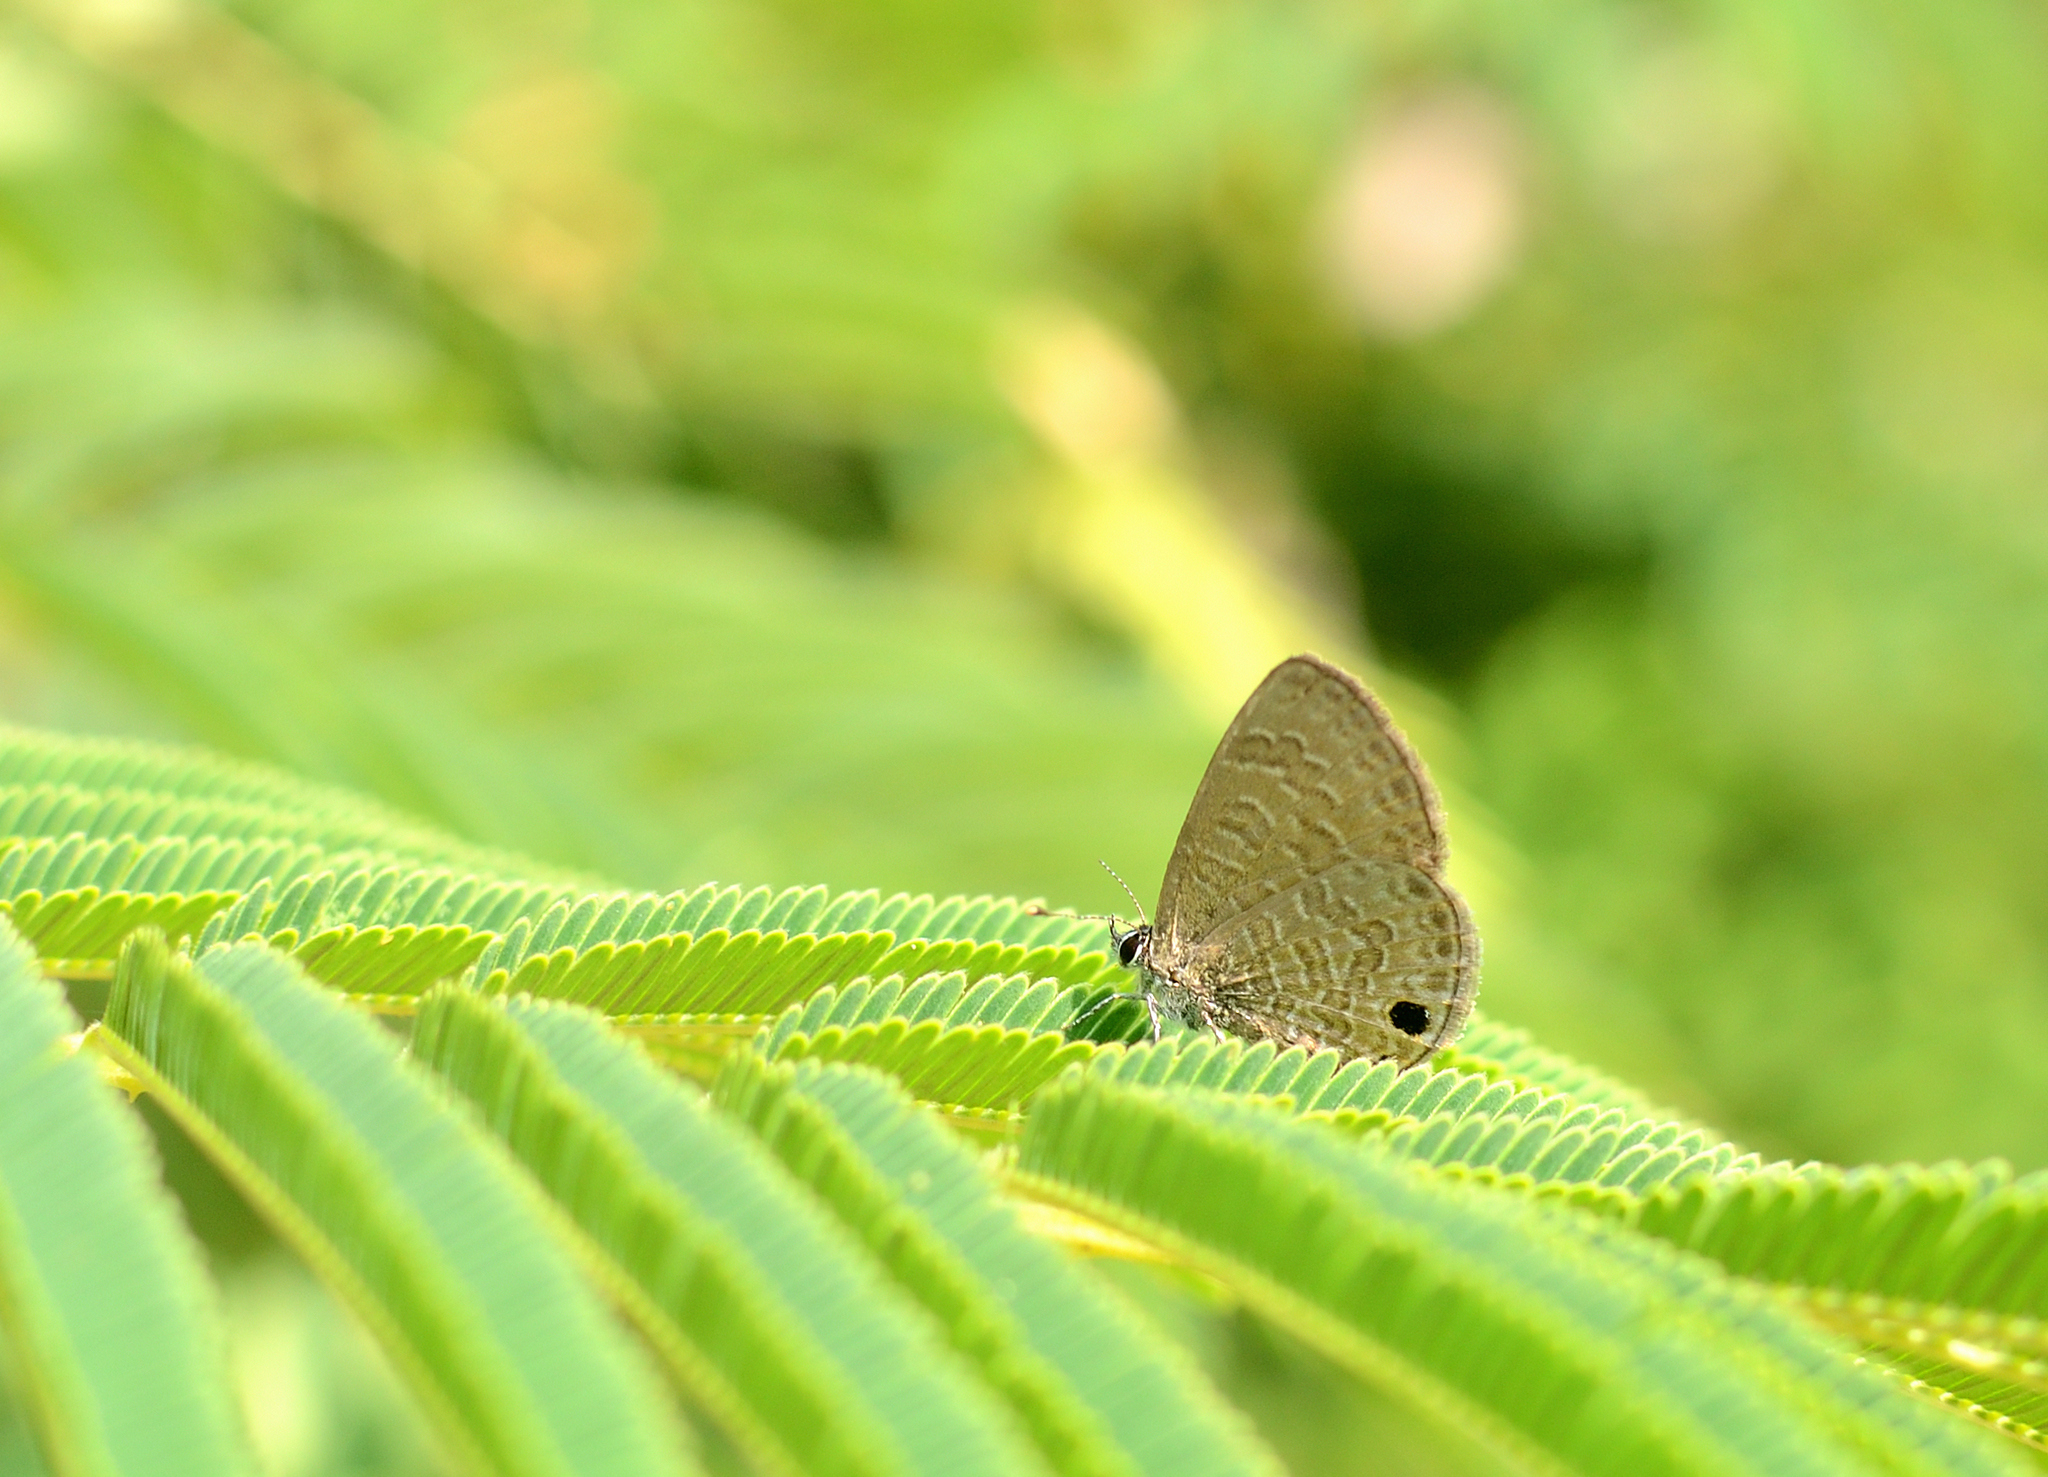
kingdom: Animalia
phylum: Arthropoda
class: Insecta
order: Lepidoptera
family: Lycaenidae
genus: Prosotas
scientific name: Prosotas dubiosa
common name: Tailless lineblue
